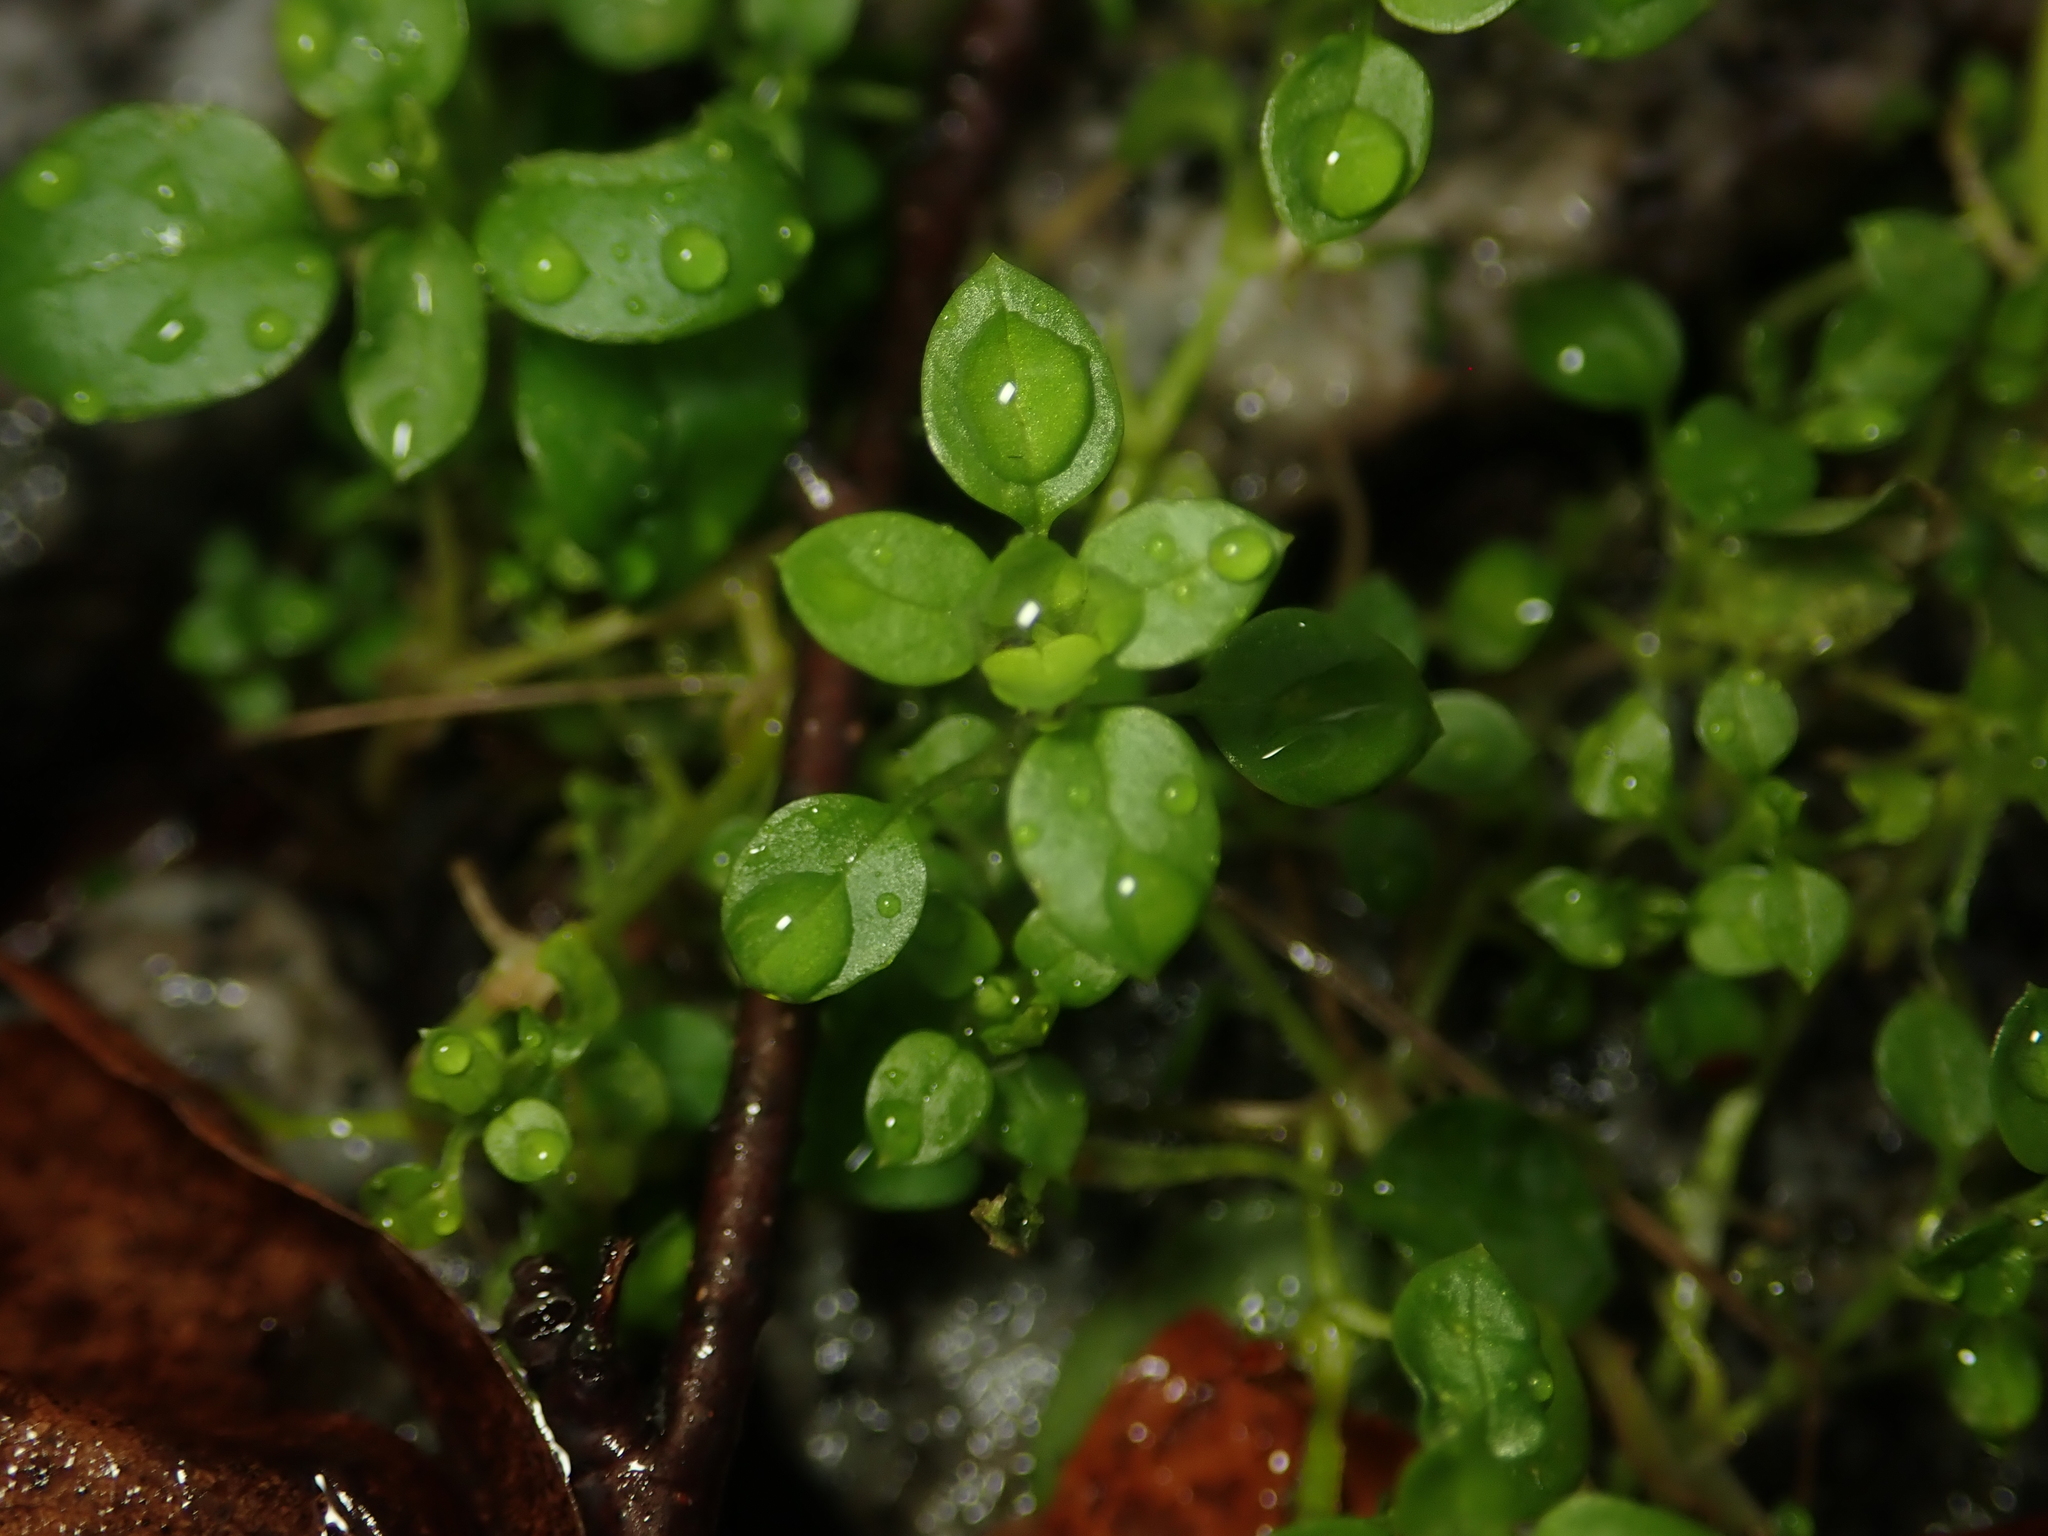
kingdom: Plantae
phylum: Tracheophyta
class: Magnoliopsida
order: Caryophyllales
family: Caryophyllaceae
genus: Stellaria
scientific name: Stellaria media
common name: Common chickweed
